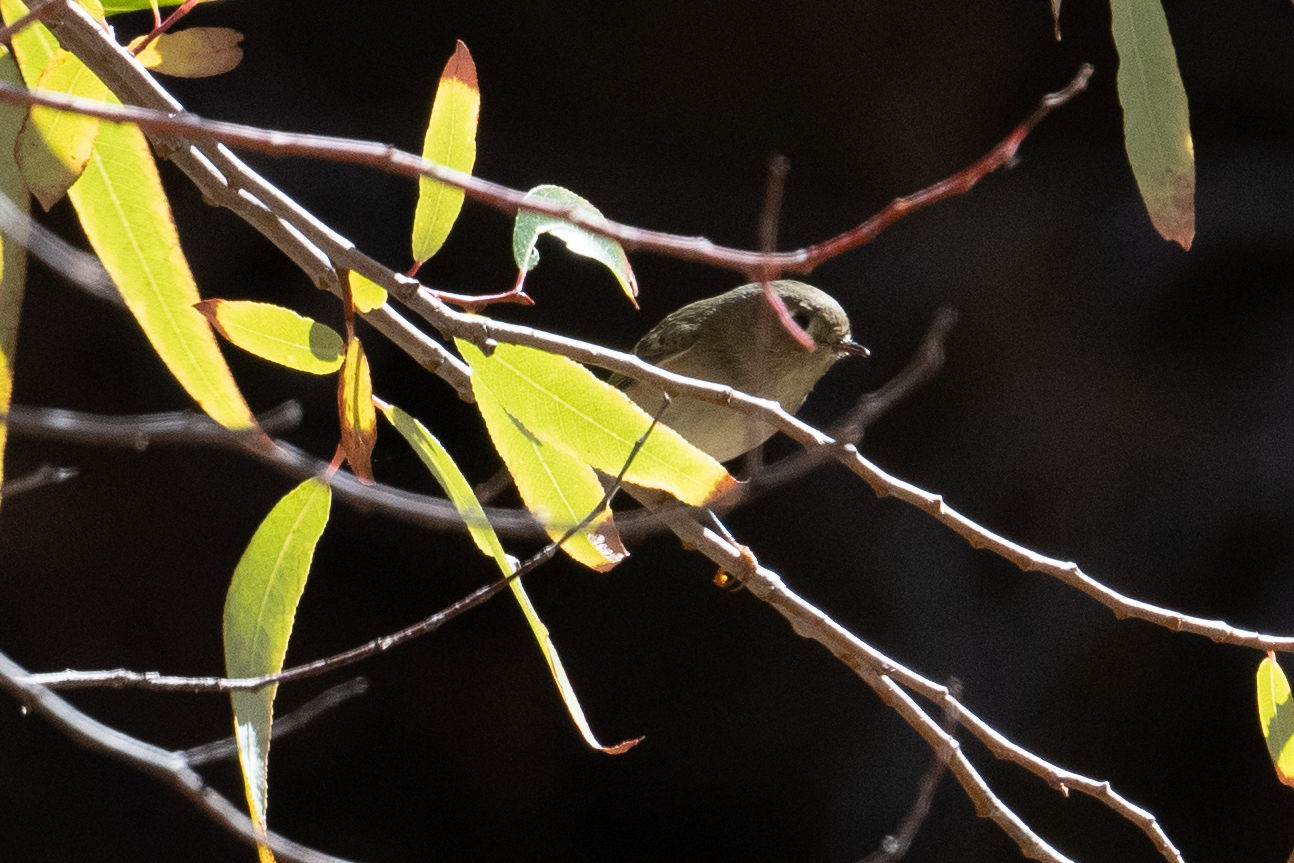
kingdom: Animalia
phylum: Chordata
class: Aves
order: Passeriformes
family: Regulidae
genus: Regulus
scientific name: Regulus calendula
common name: Ruby-crowned kinglet
